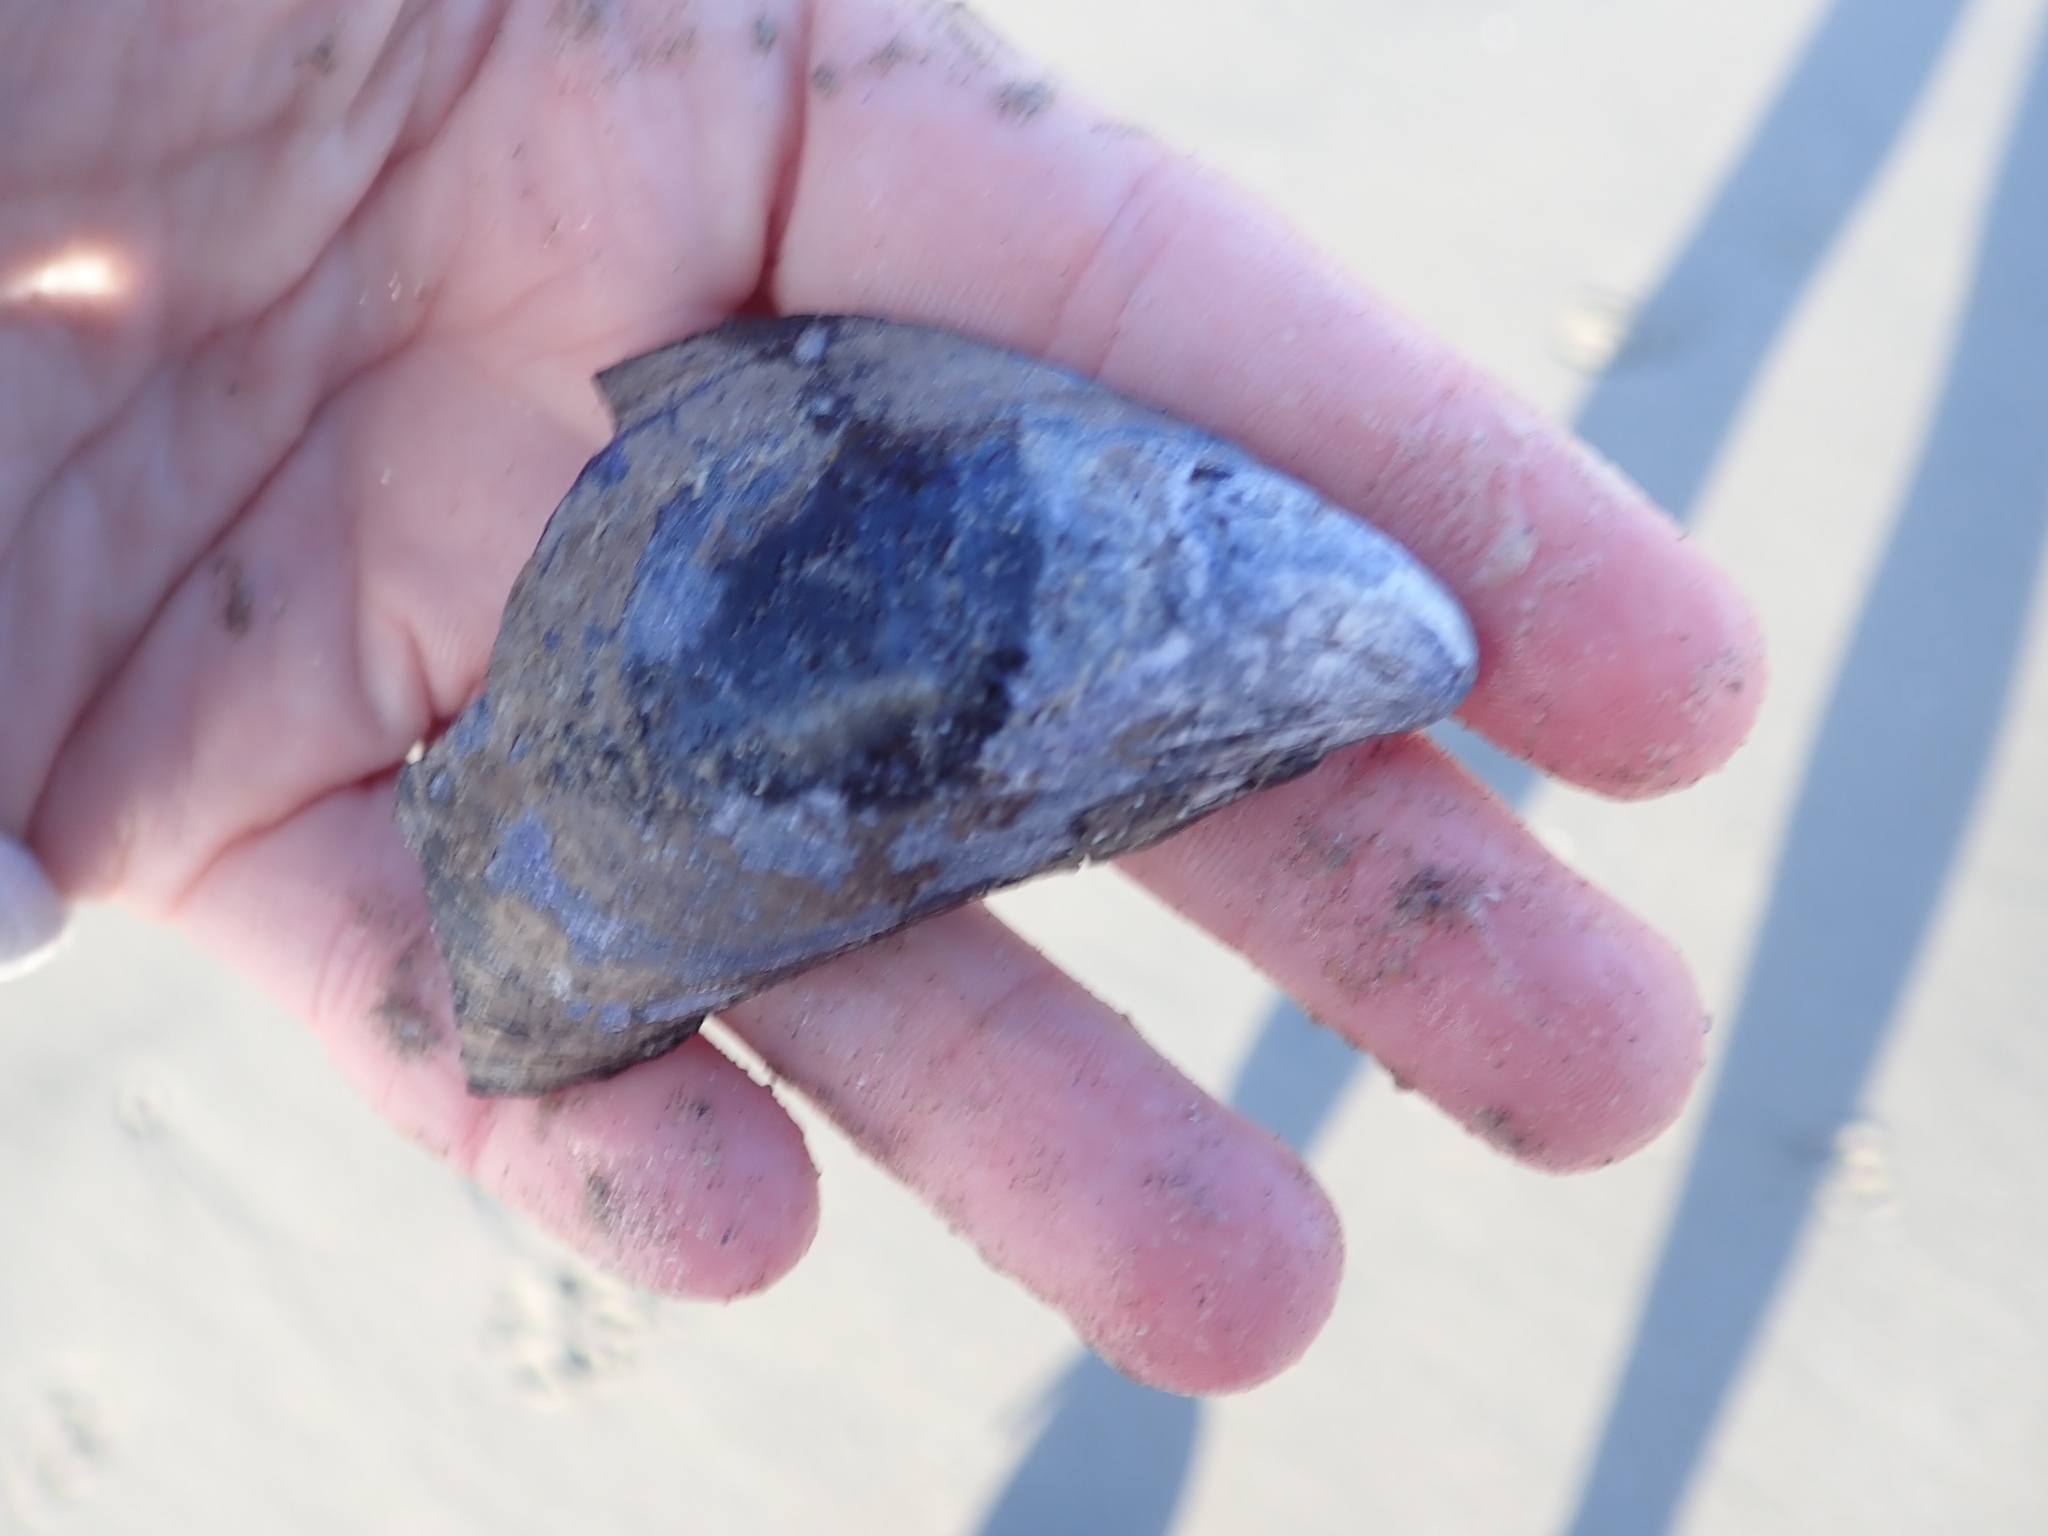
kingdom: Animalia
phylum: Mollusca
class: Bivalvia
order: Mytilida
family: Mytilidae
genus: Mytilus
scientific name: Mytilus edulis
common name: Blue mussel
